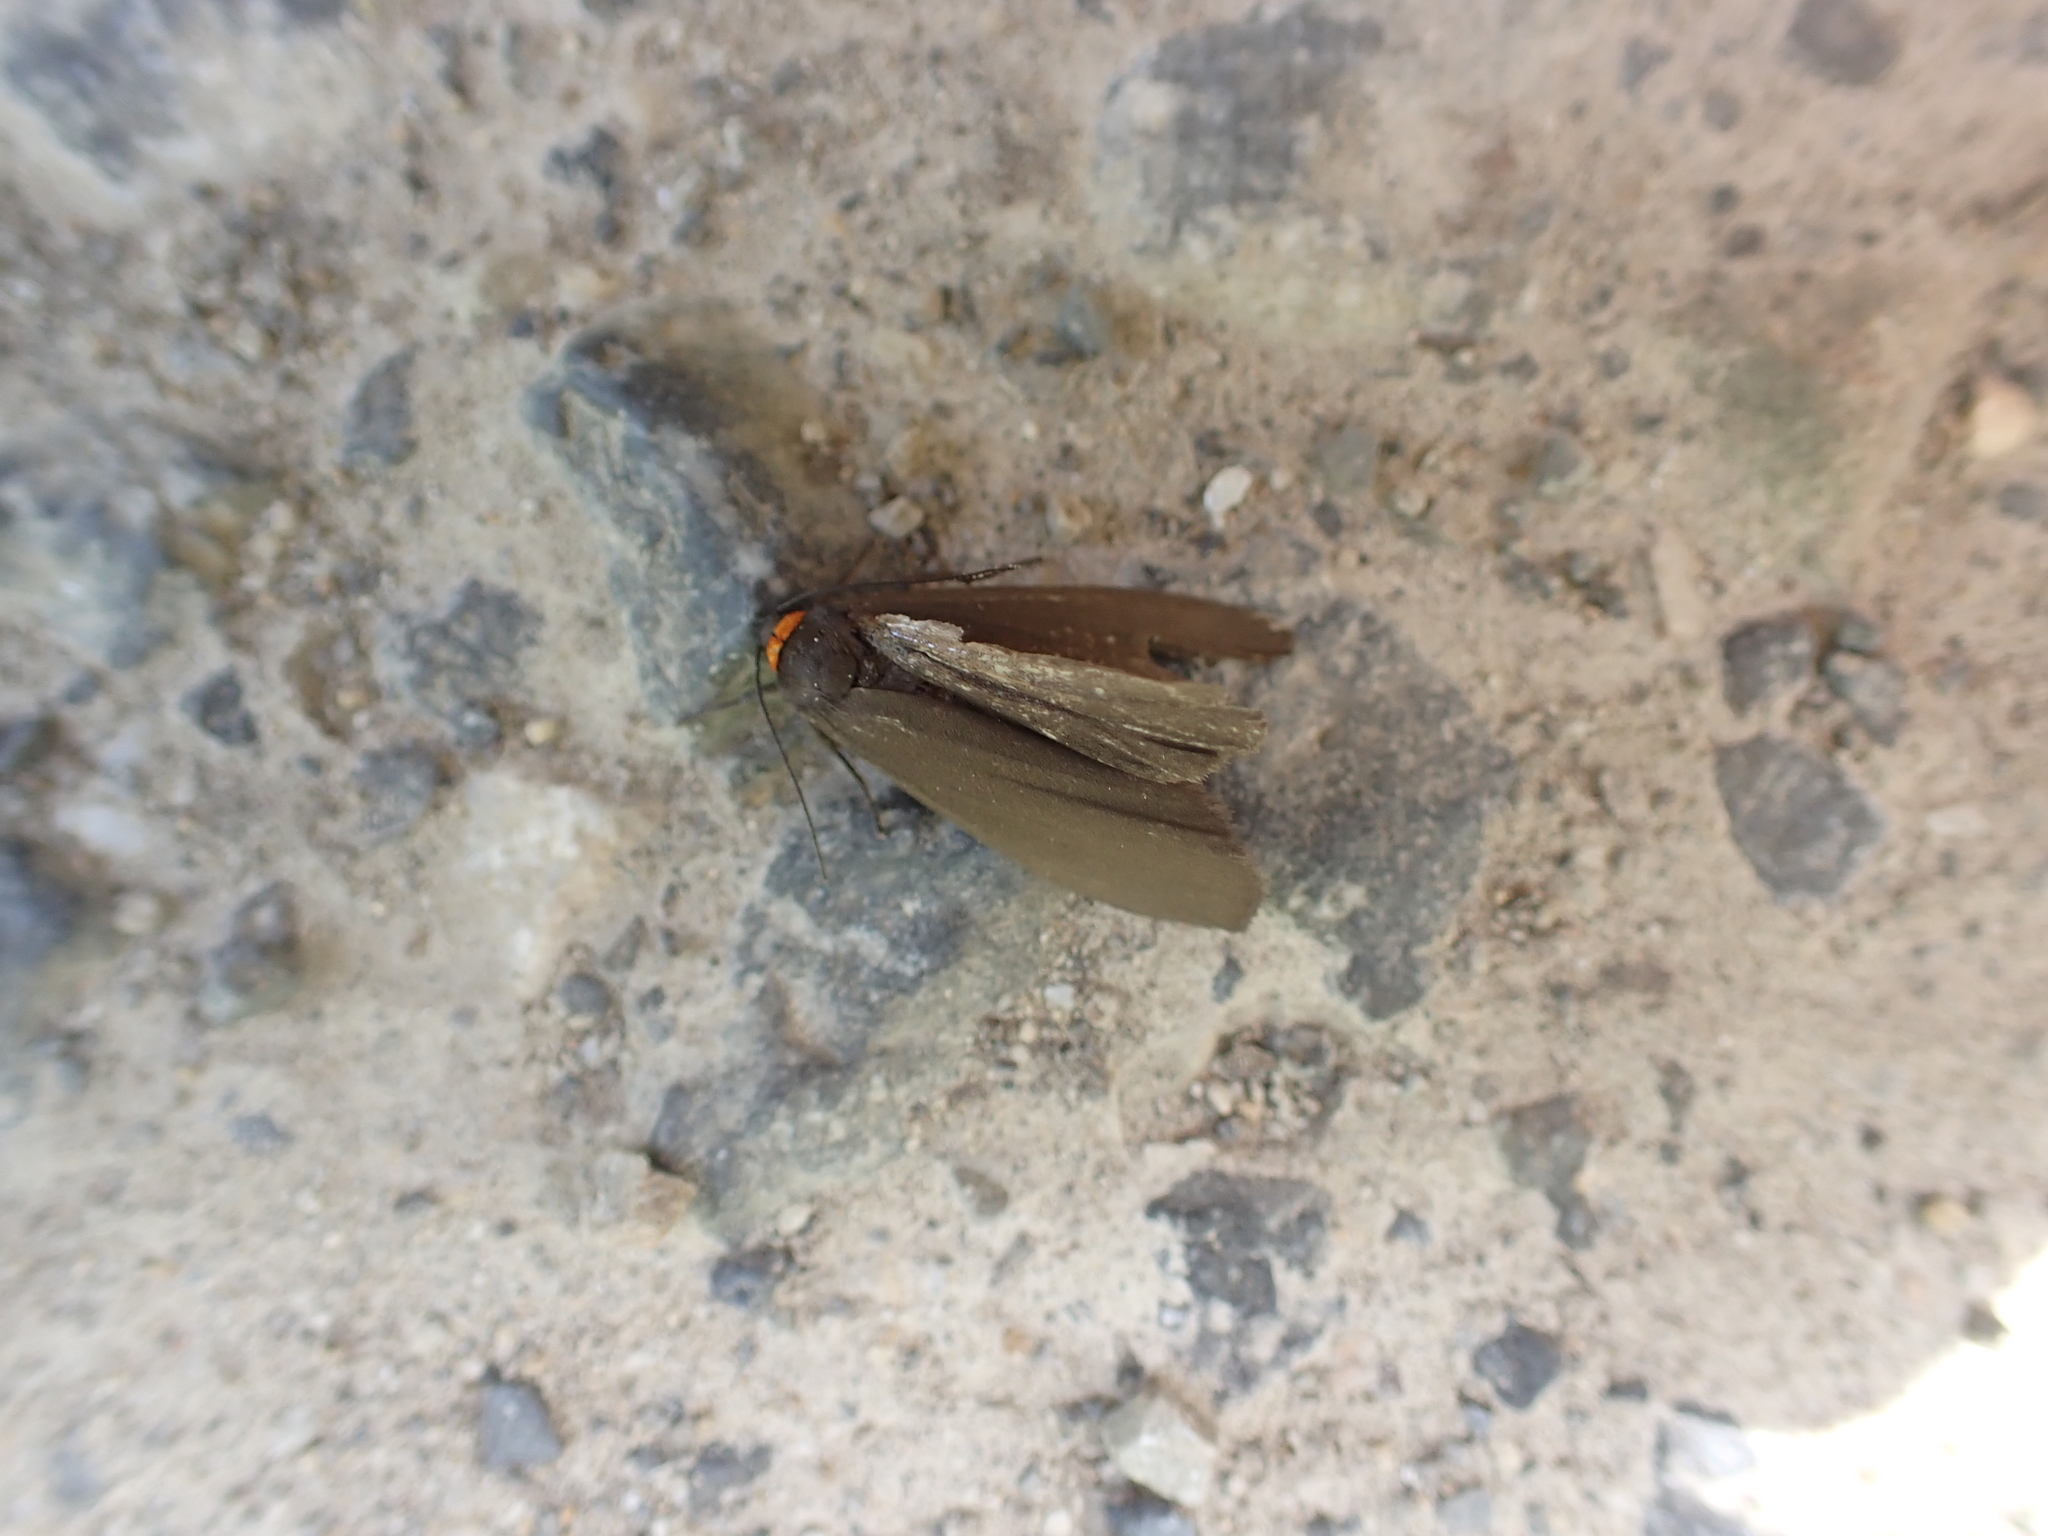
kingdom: Animalia
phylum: Arthropoda
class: Insecta
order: Lepidoptera
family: Erebidae
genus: Atolmis
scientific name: Atolmis rubricollis
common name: Red-necked footman
